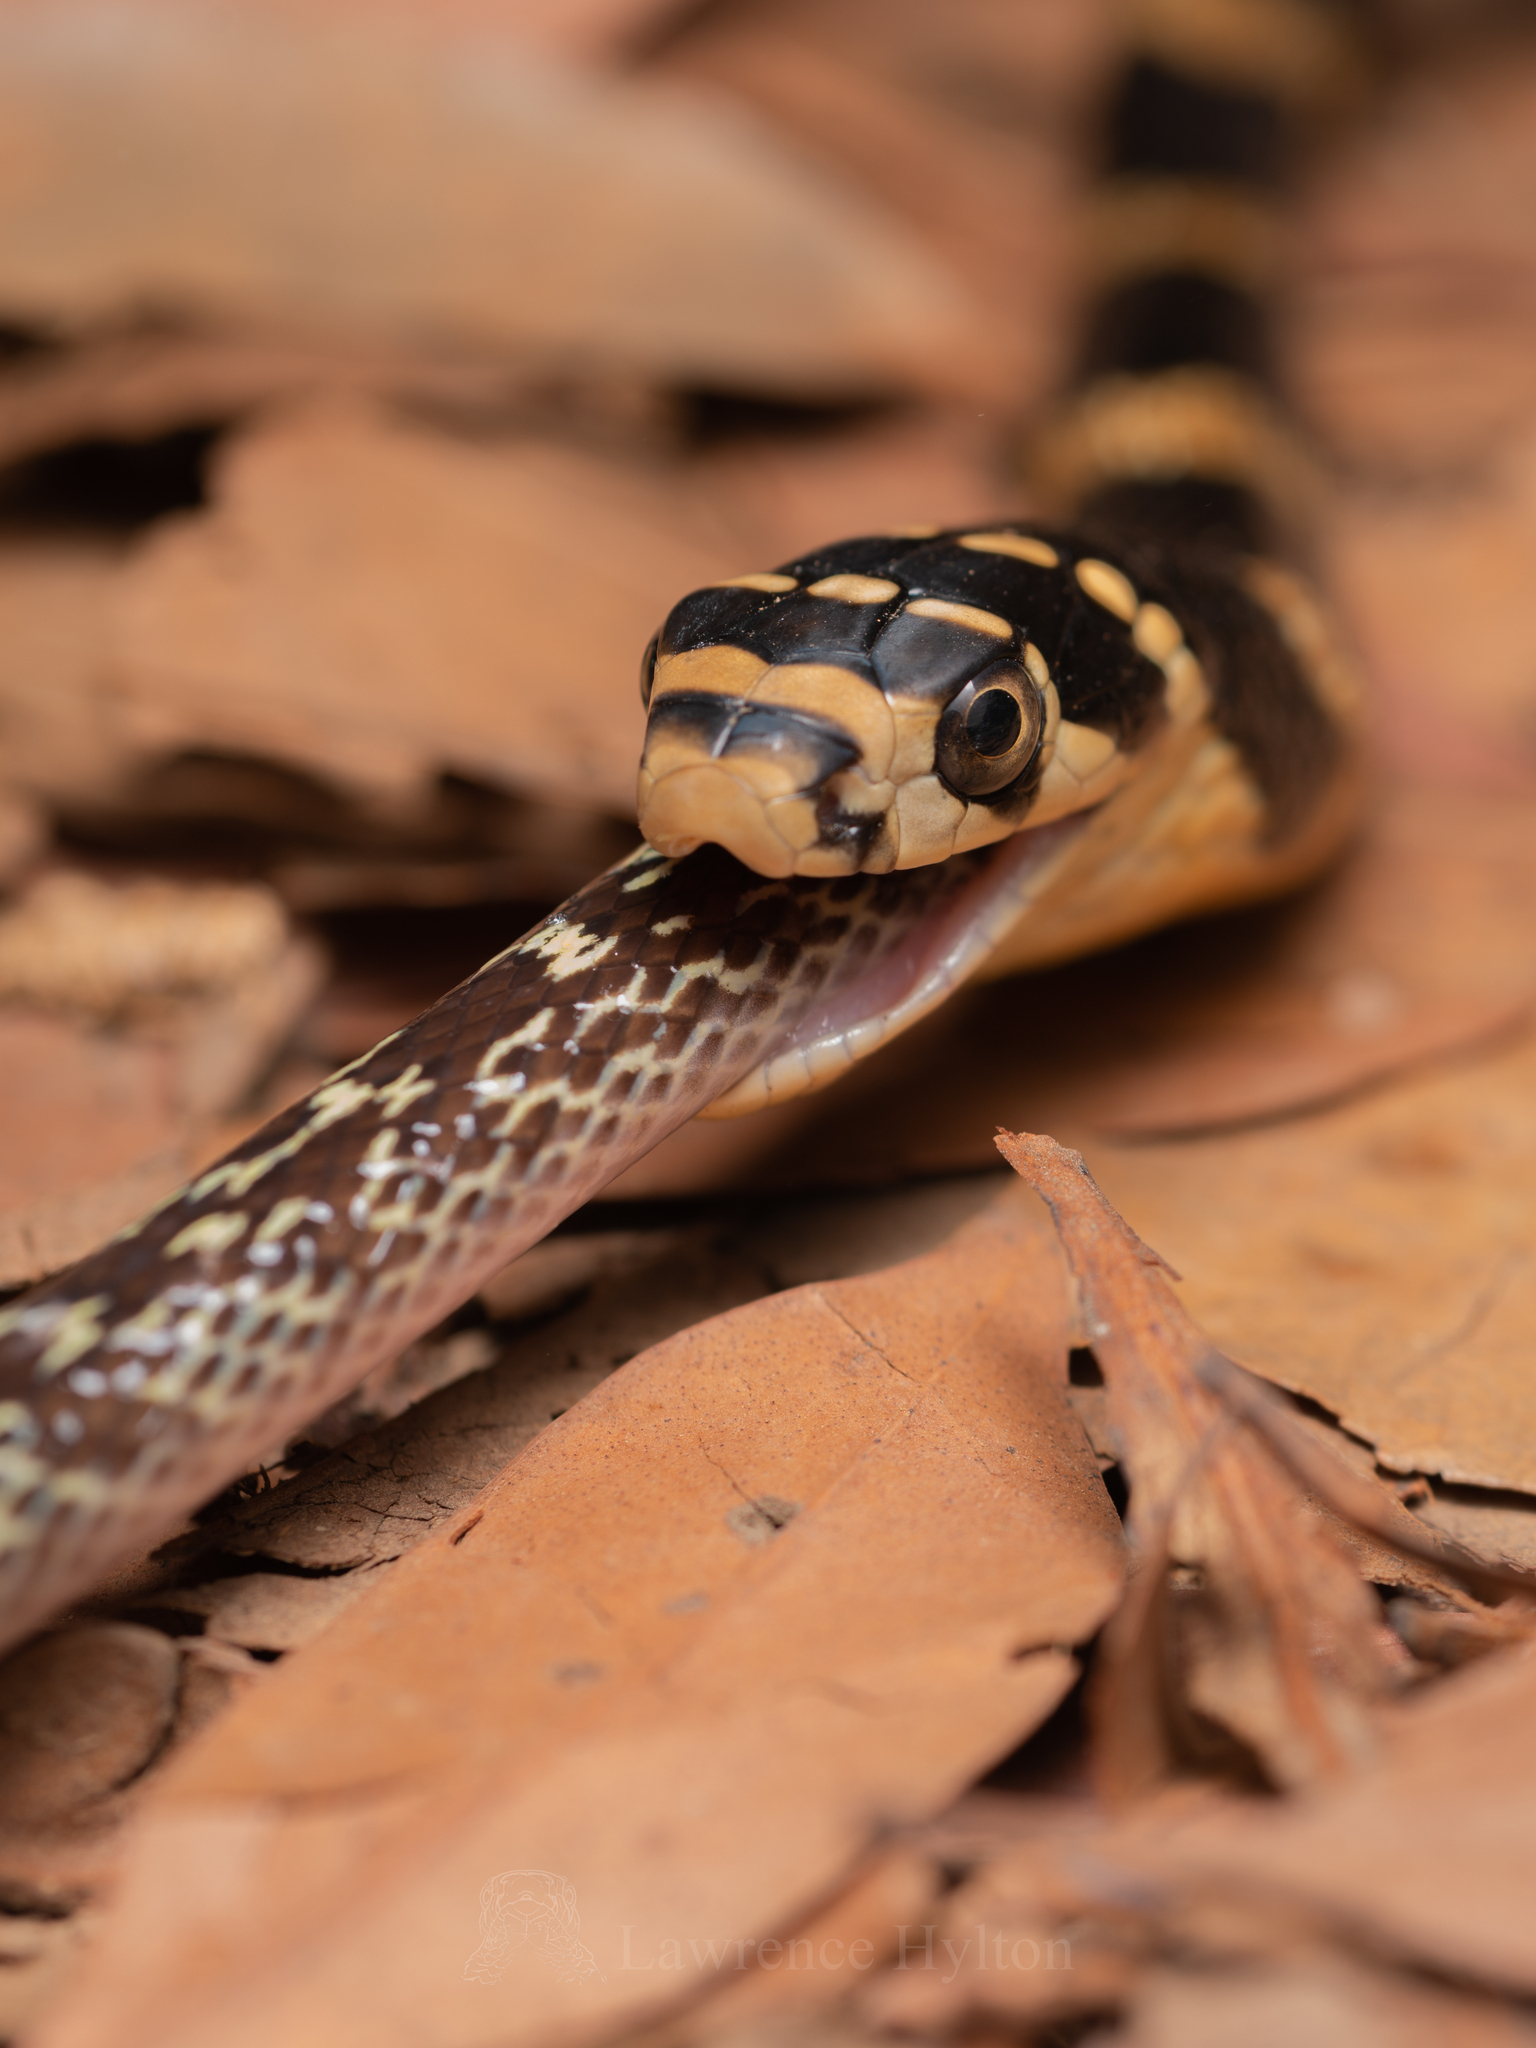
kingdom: Animalia
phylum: Chordata
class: Squamata
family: Elapidae
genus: Ophiophagus
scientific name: Ophiophagus hannah
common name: Hamadryad
